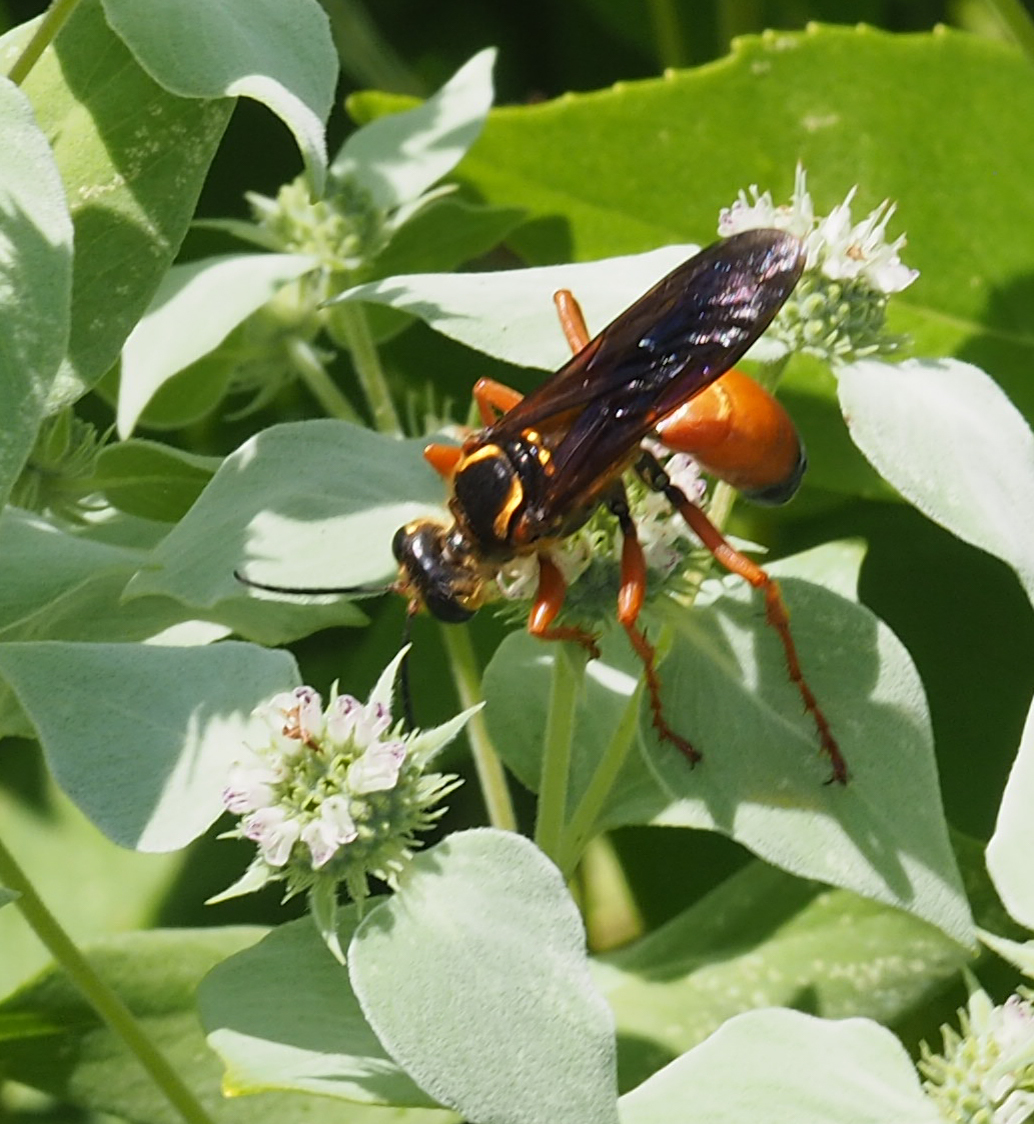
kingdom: Animalia
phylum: Arthropoda
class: Insecta
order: Hymenoptera
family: Sphecidae
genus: Sphex
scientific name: Sphex ichneumoneus
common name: Great golden digger wasp
